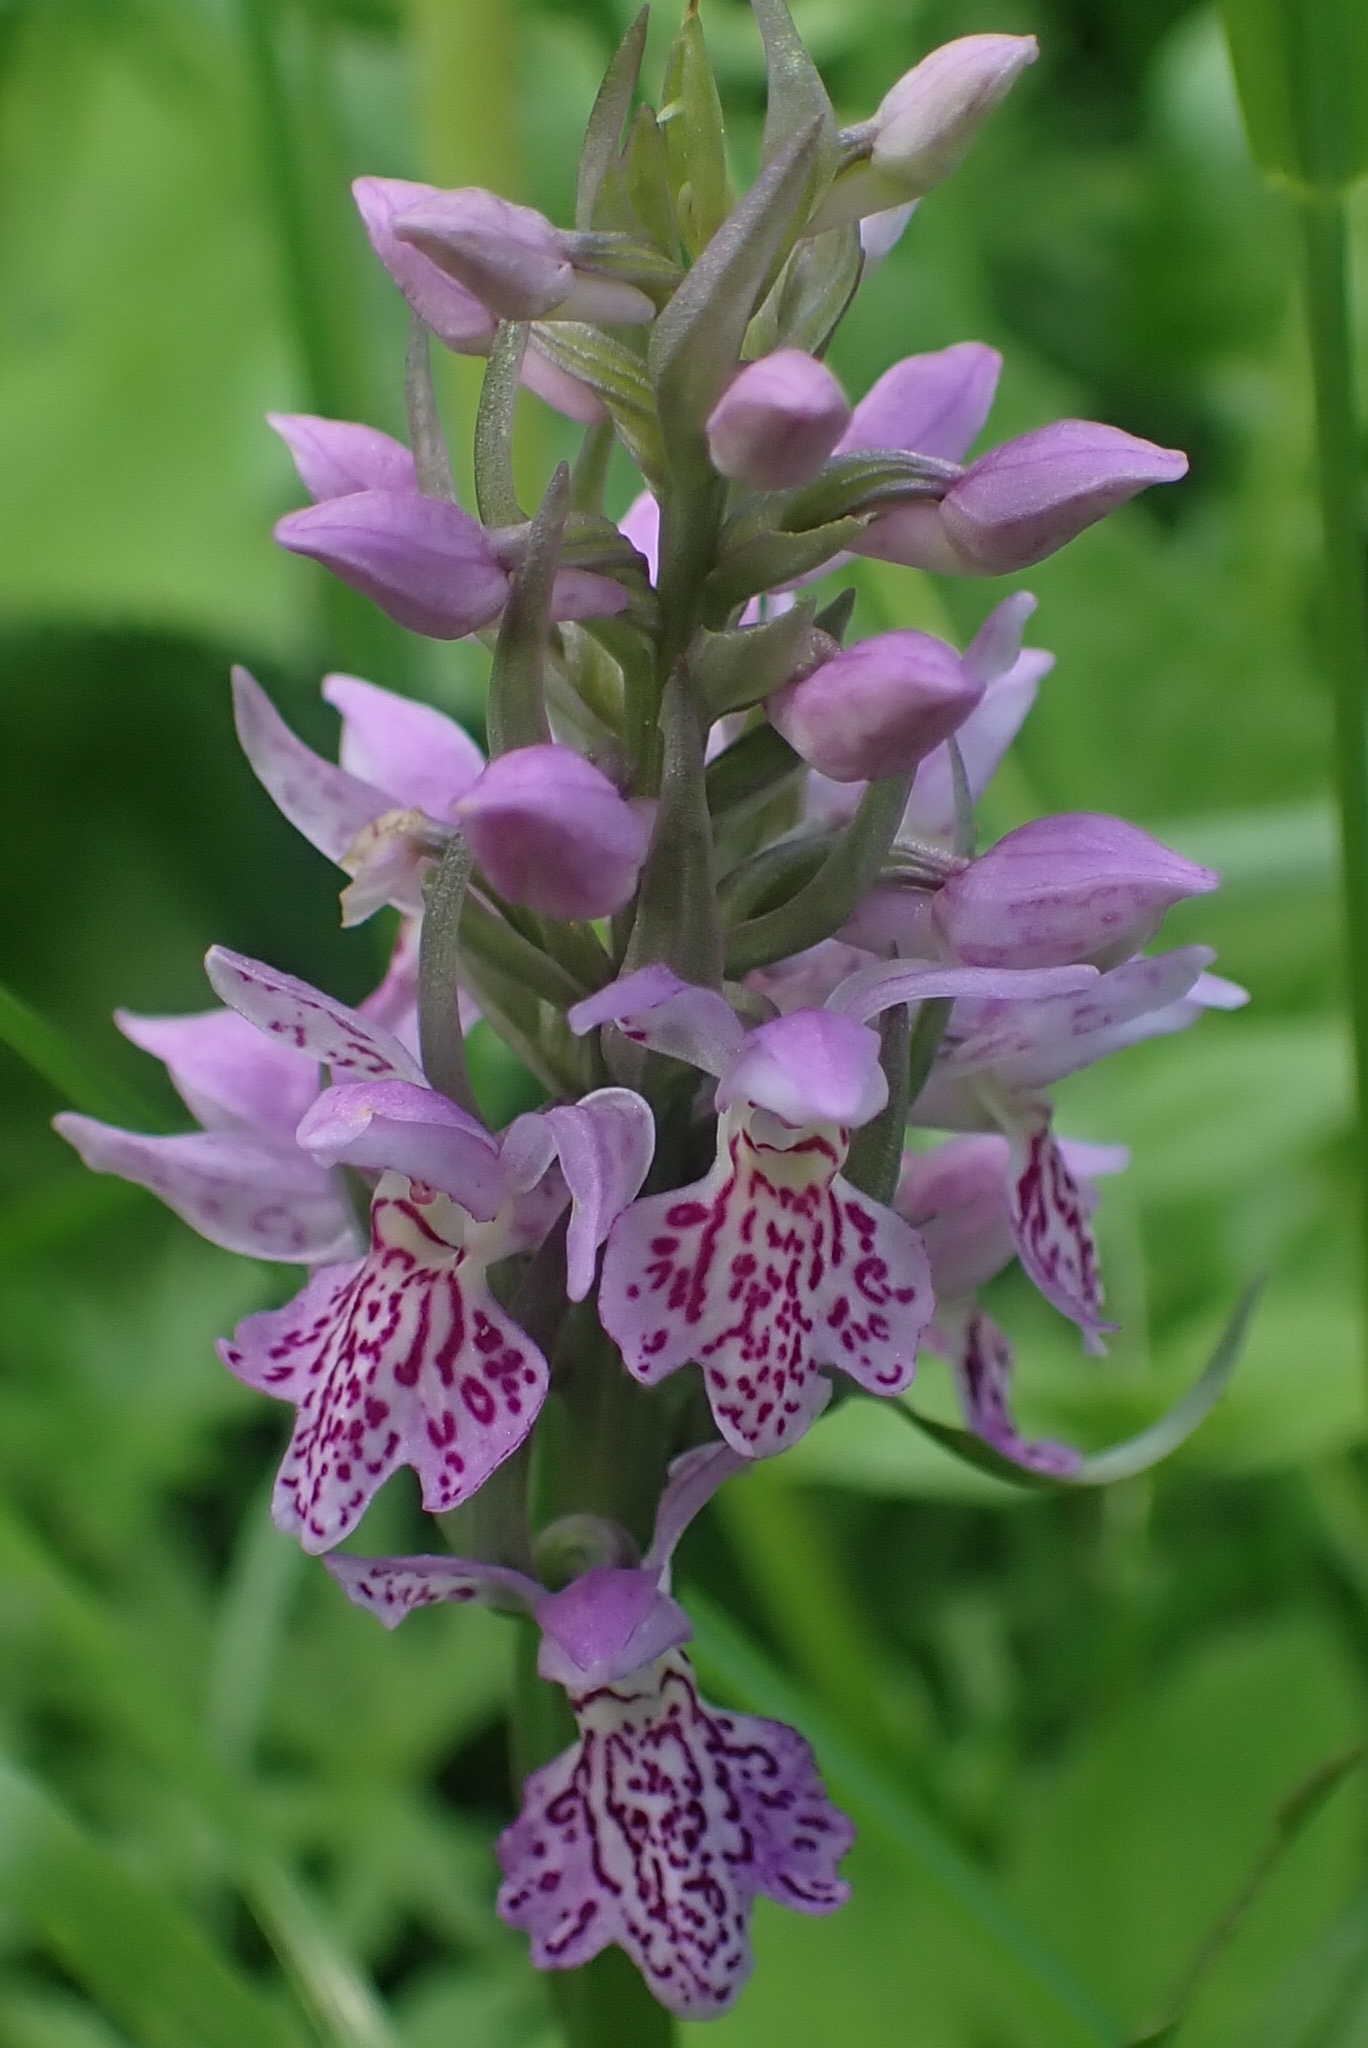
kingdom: Plantae
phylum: Tracheophyta
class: Liliopsida
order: Asparagales
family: Orchidaceae
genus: Dactylorhiza
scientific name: Dactylorhiza sibirica
